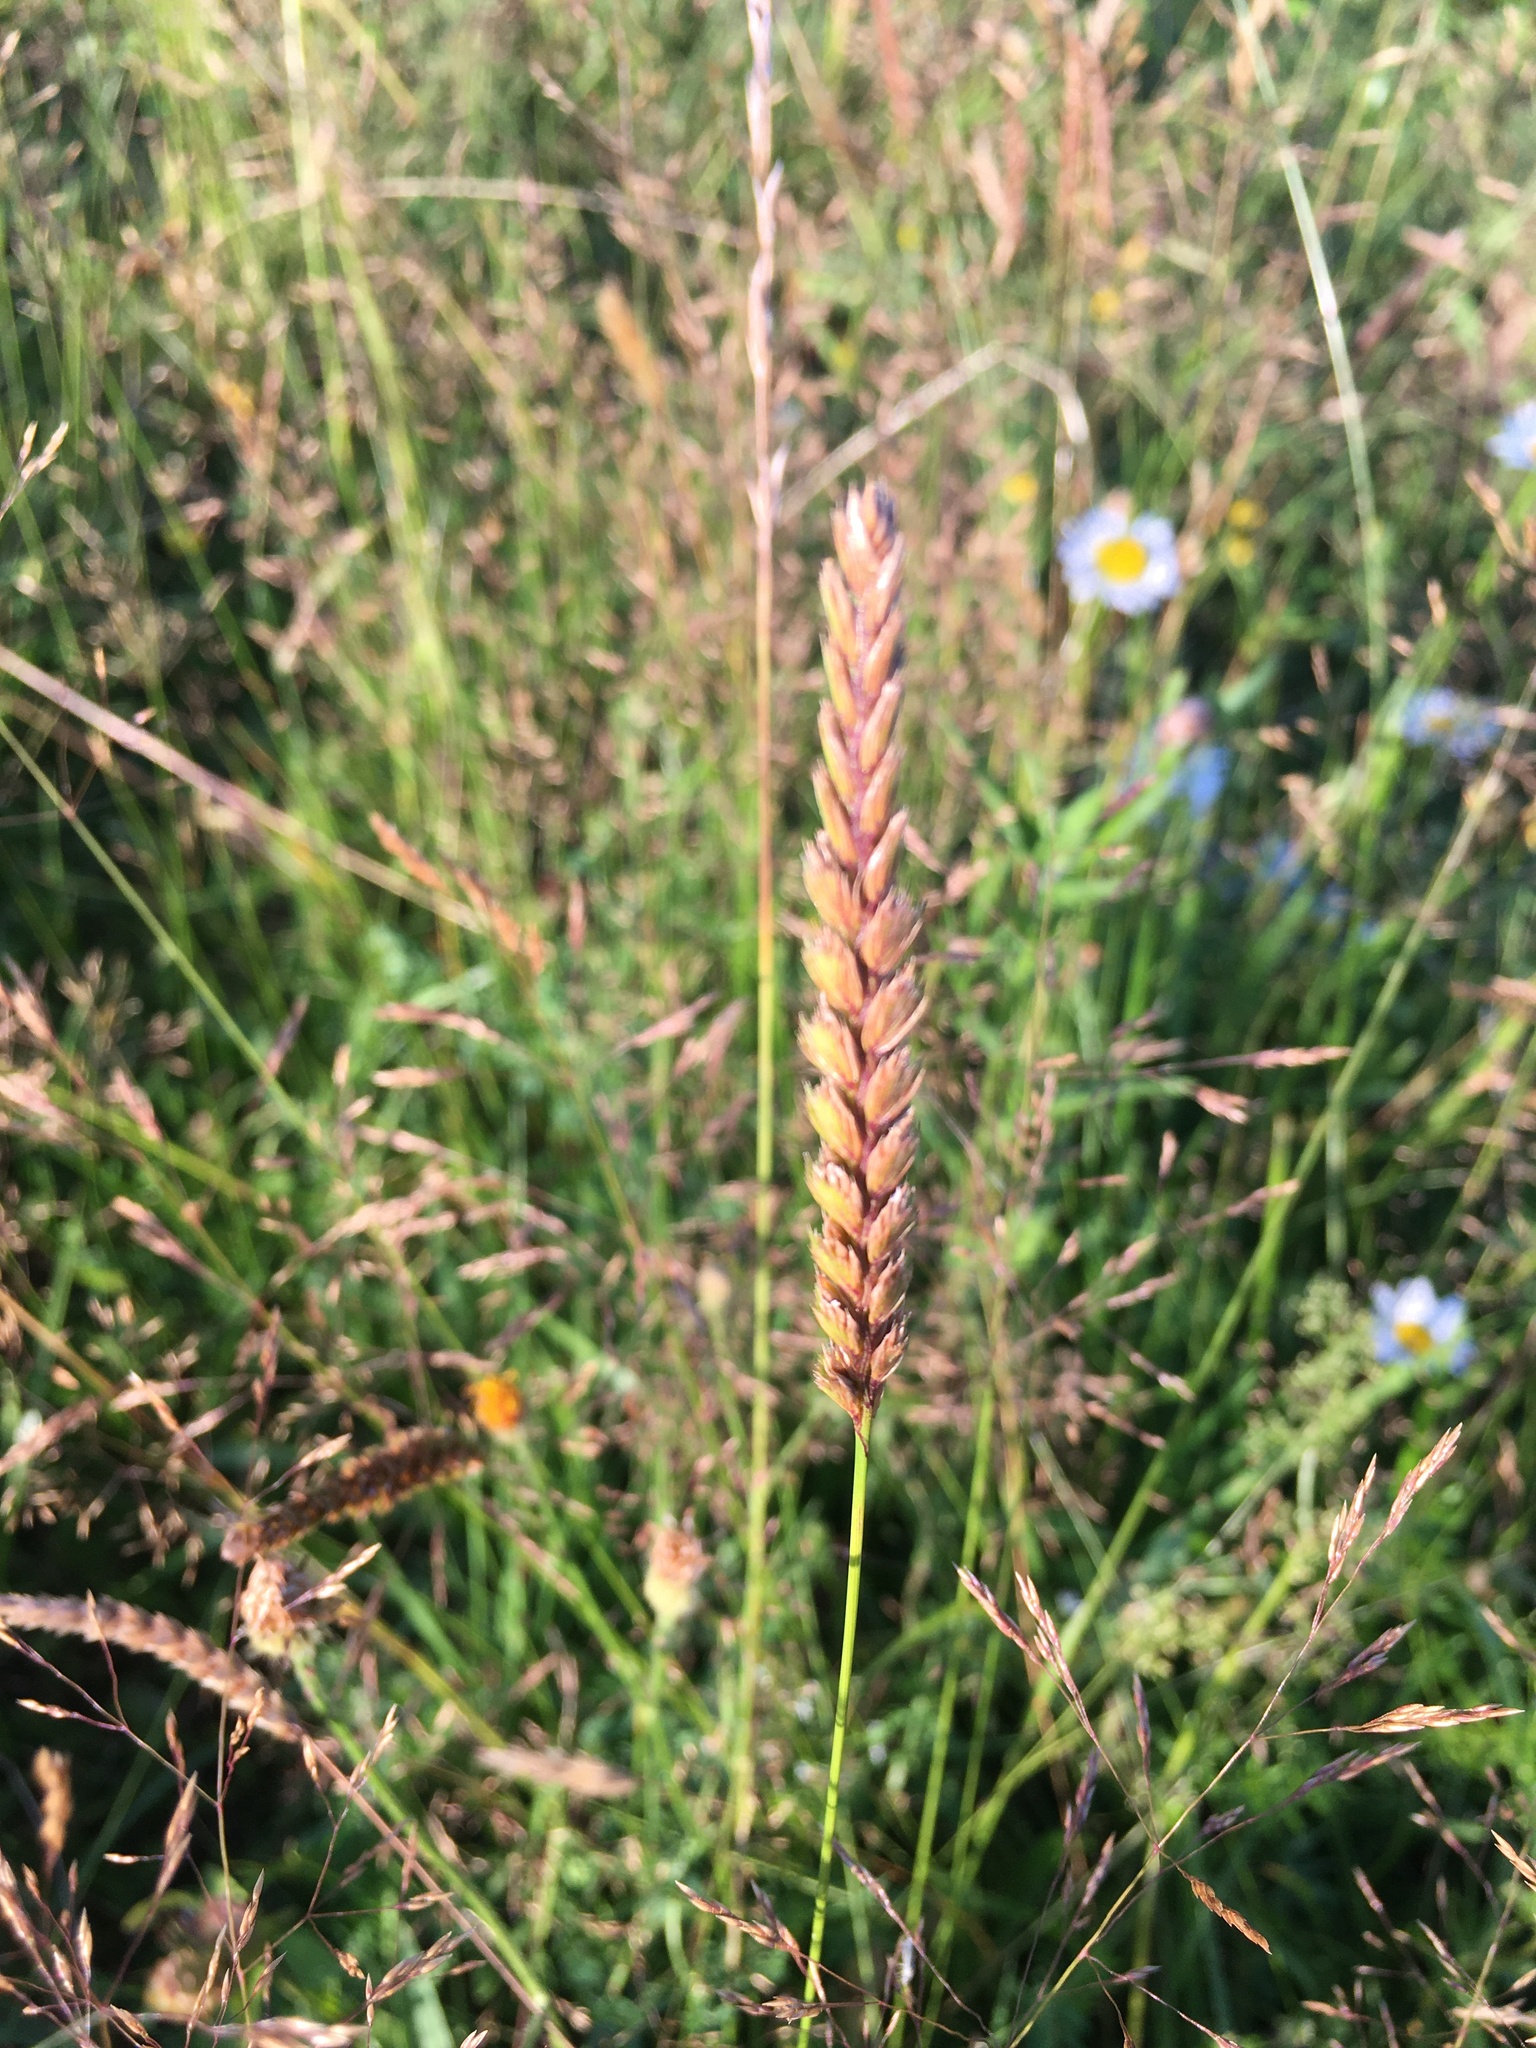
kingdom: Plantae
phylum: Tracheophyta
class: Liliopsida
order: Poales
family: Poaceae
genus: Cynosurus
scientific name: Cynosurus cristatus
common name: Crested dog's-tail
